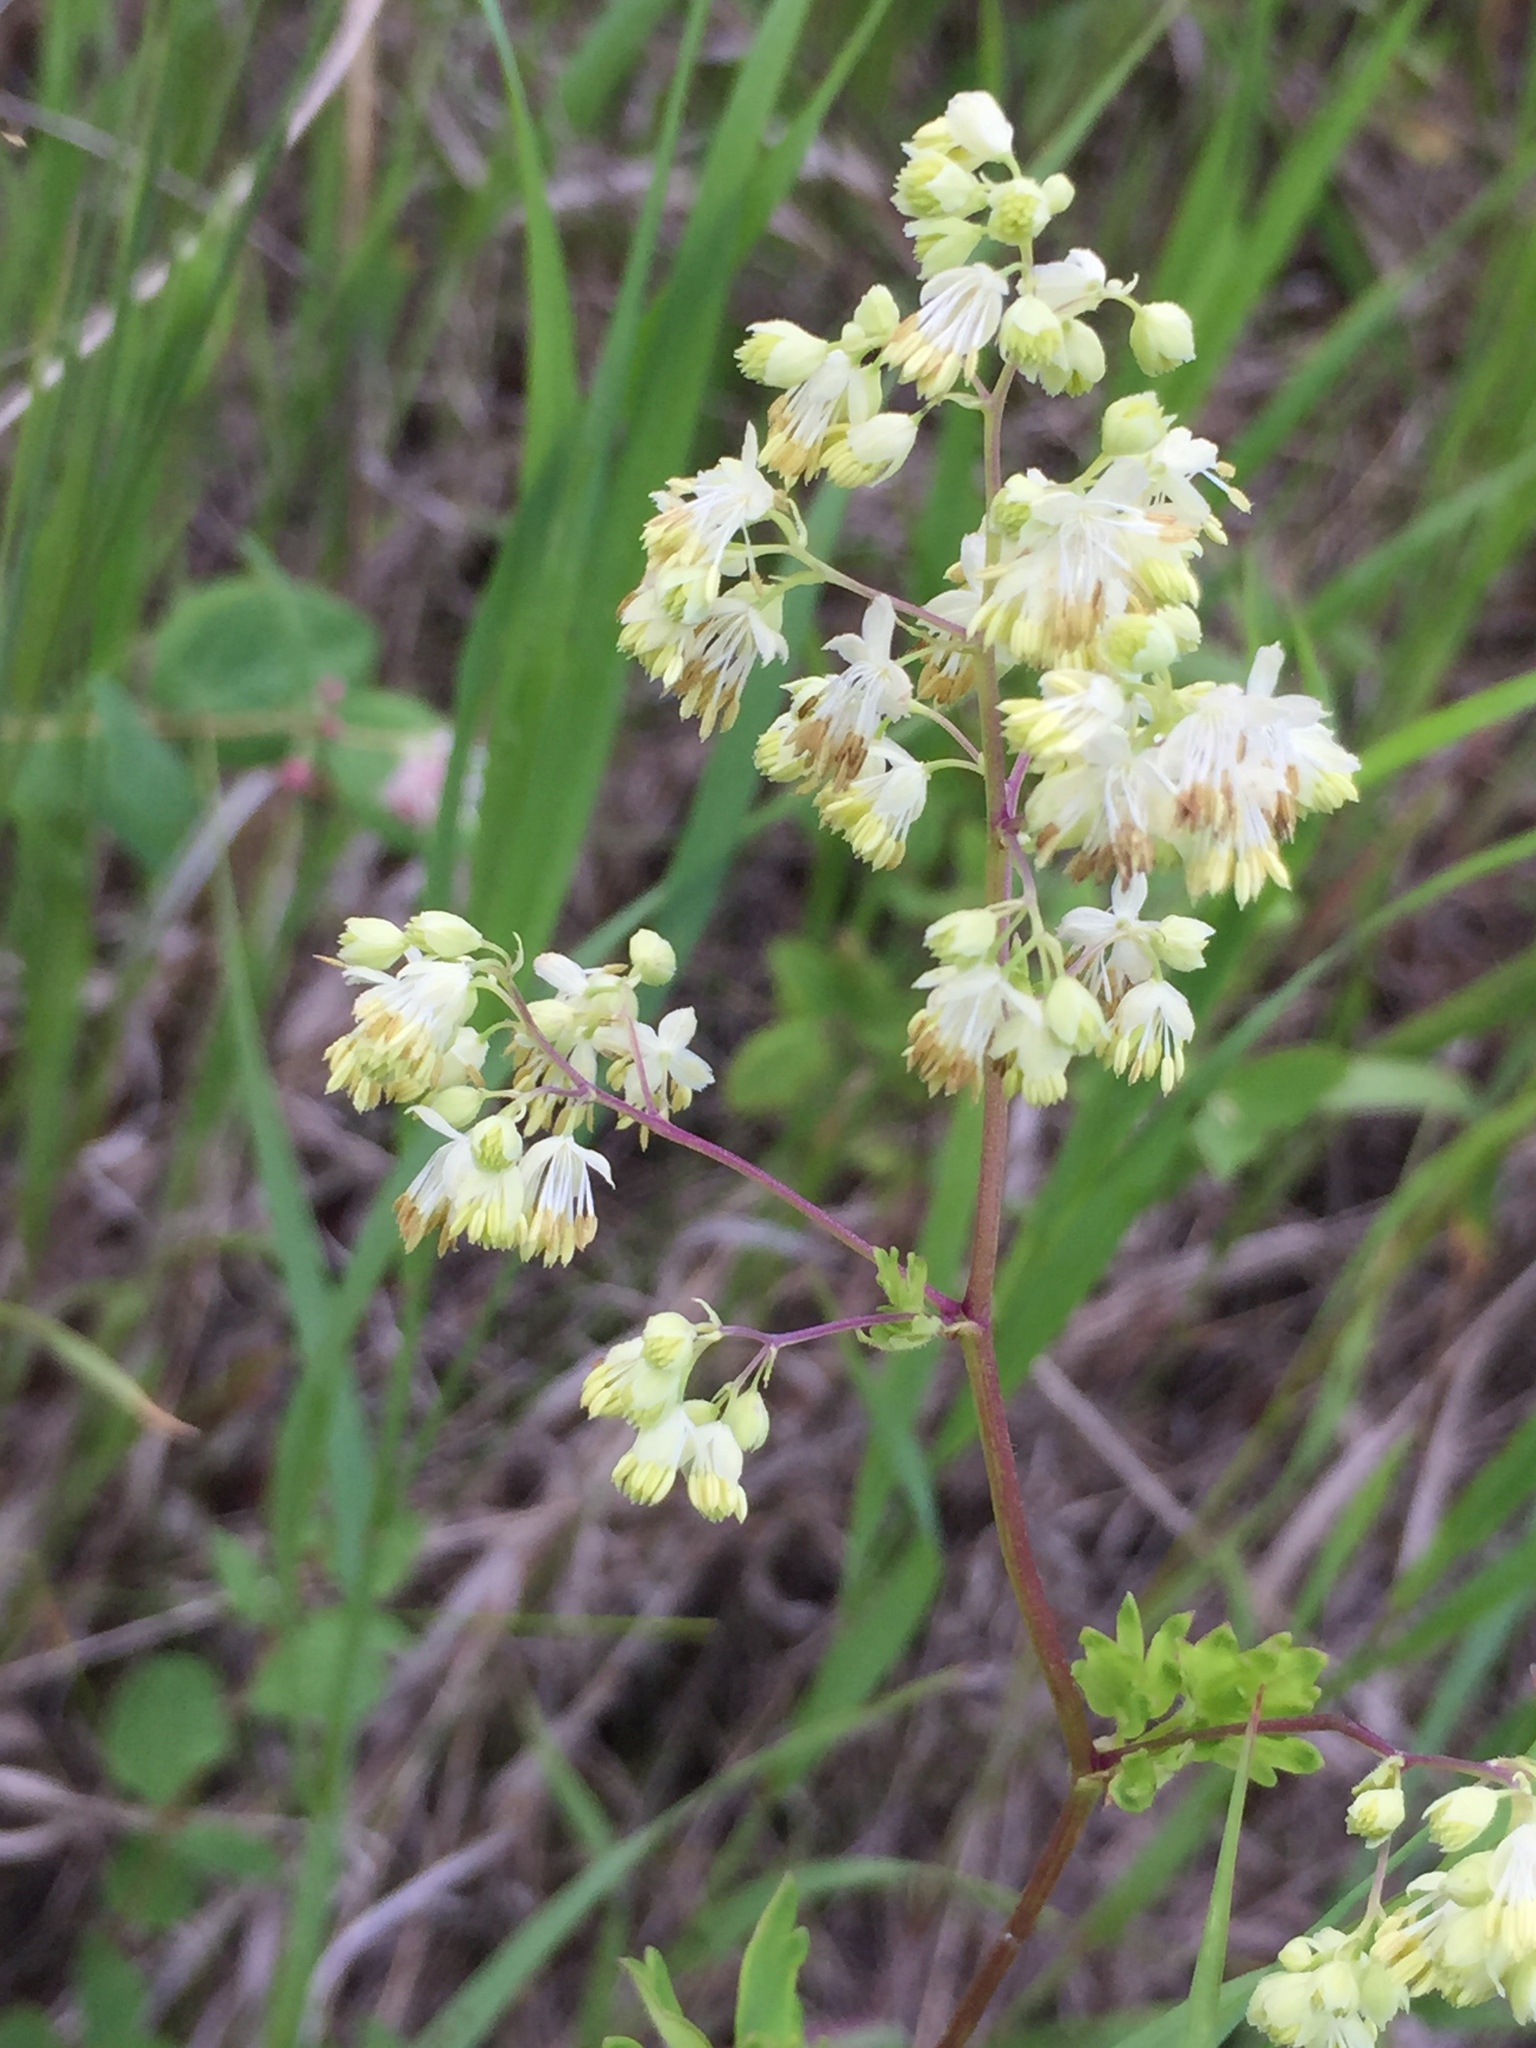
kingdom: Plantae
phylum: Tracheophyta
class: Magnoliopsida
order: Ranunculales
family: Ranunculaceae
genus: Thalictrum
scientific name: Thalictrum dasycarpum
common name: Purple meadow-rue
